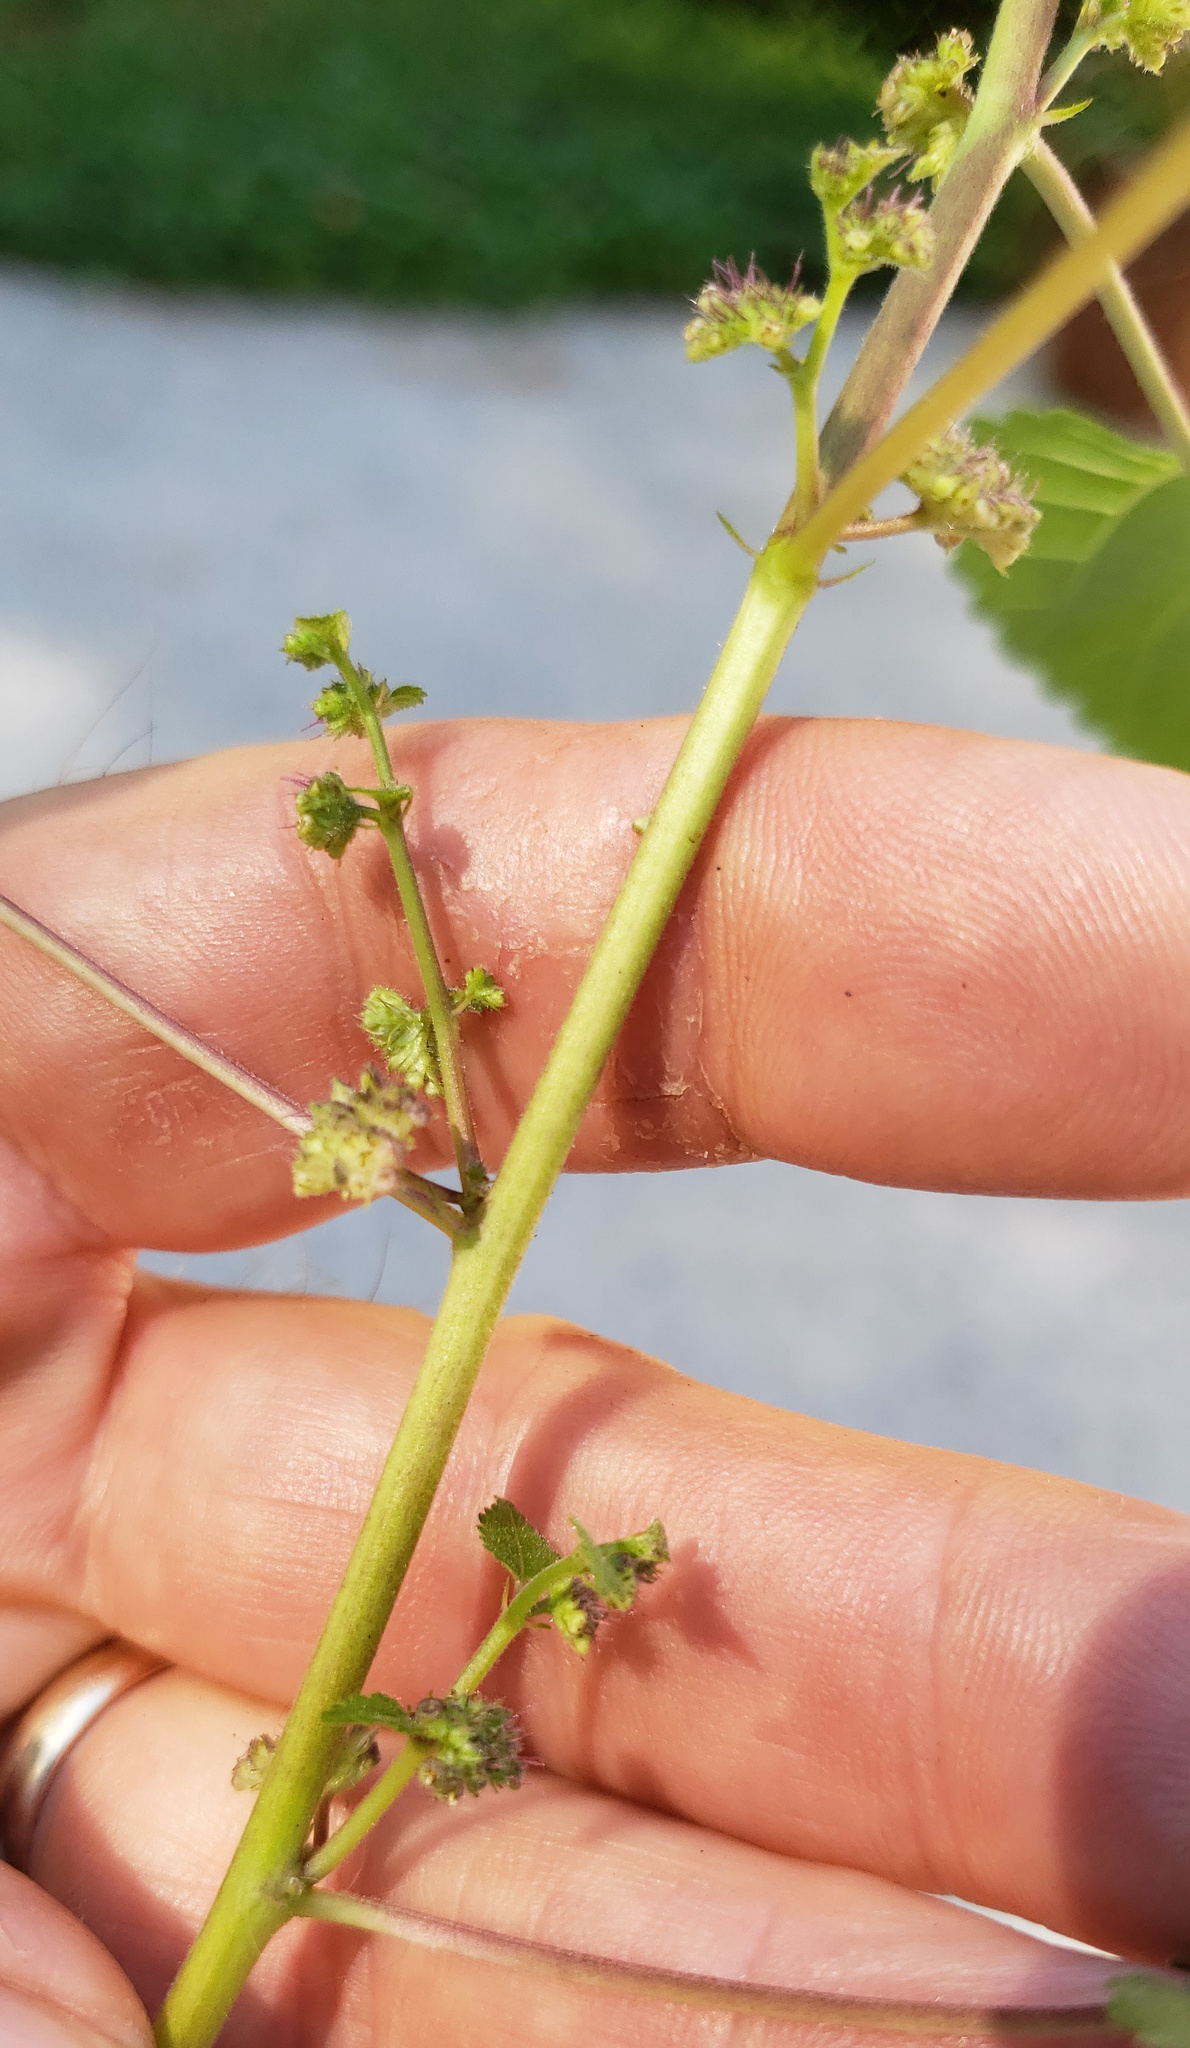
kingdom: Plantae
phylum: Tracheophyta
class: Magnoliopsida
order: Rosales
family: Moraceae
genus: Fatoua
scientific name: Fatoua villosa
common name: Hairy crabweed
